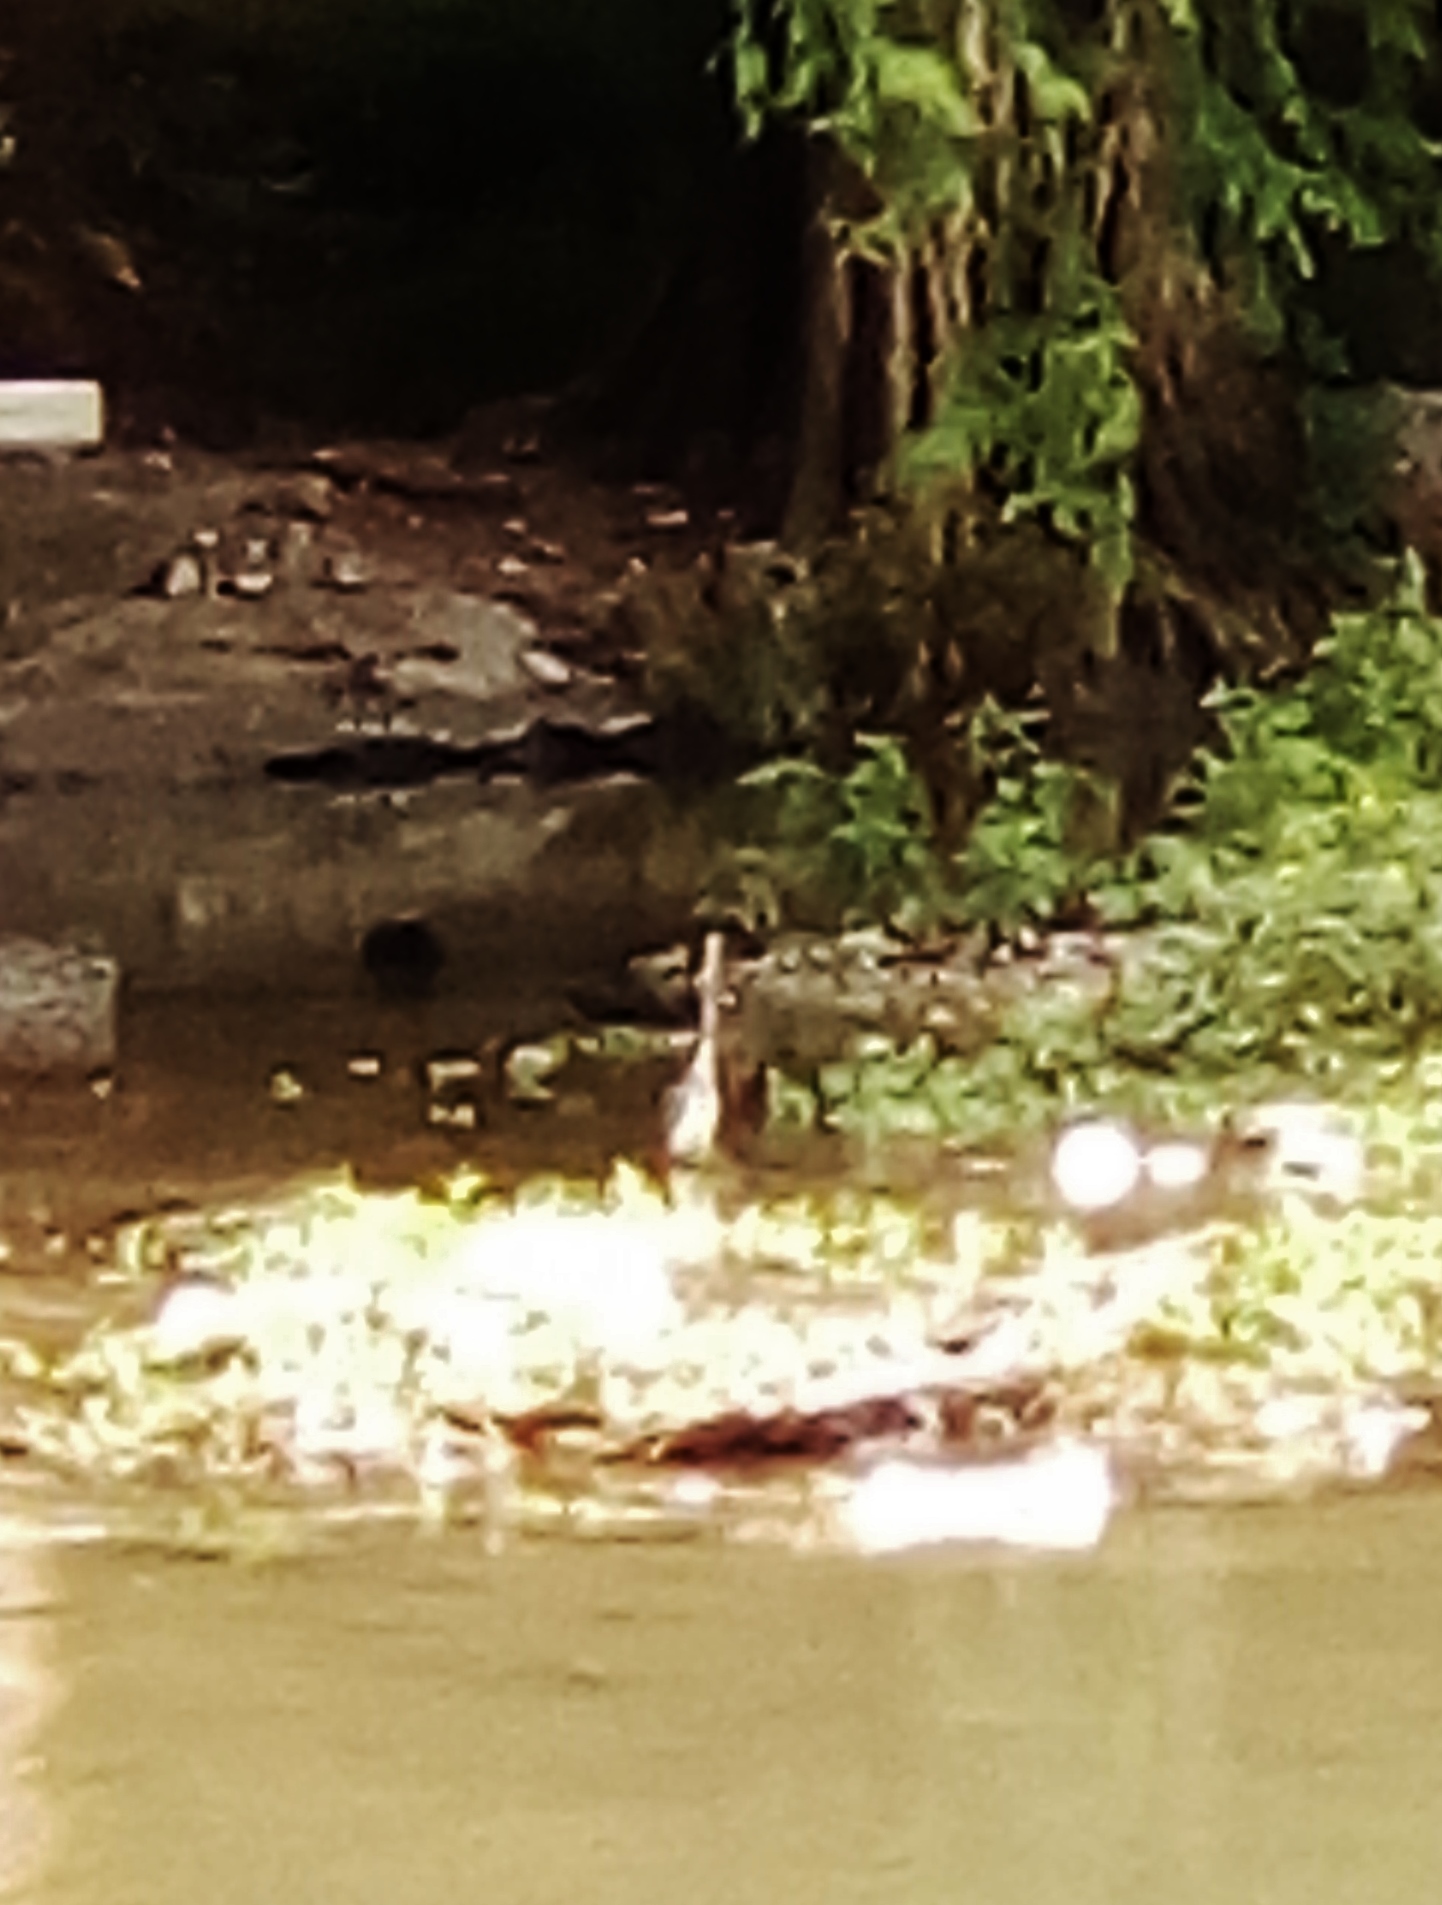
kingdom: Animalia
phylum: Chordata
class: Aves
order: Pelecaniformes
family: Ardeidae
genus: Egretta
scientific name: Egretta tricolor
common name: Tricolored heron
